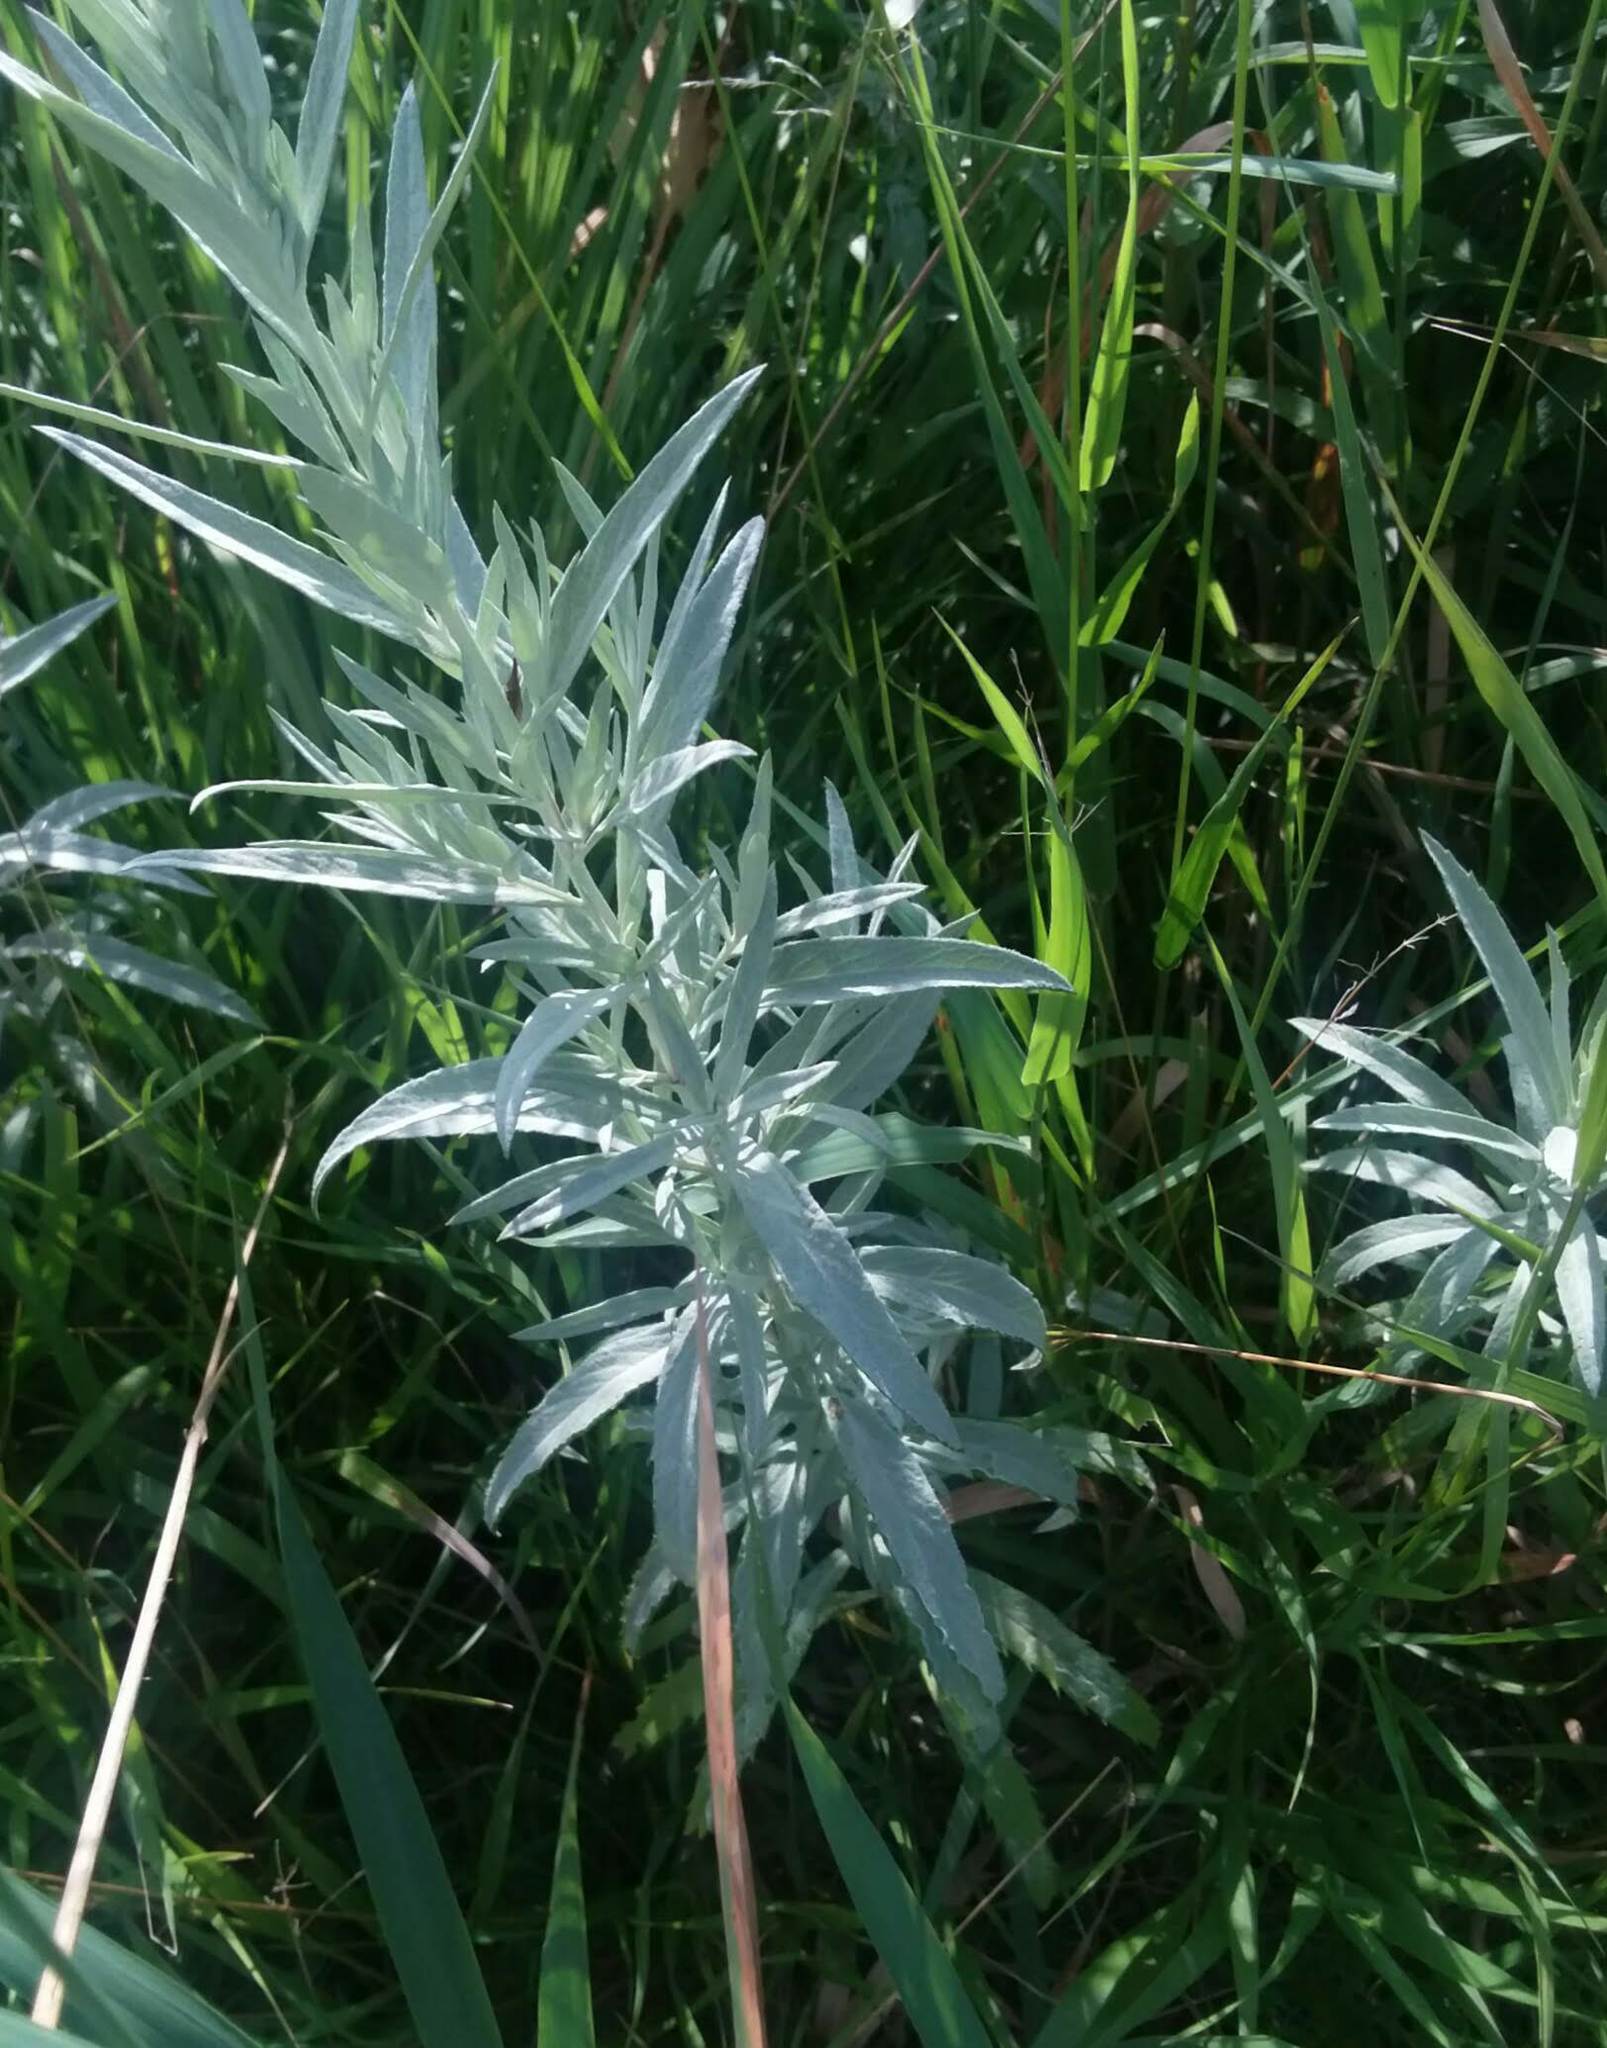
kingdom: Plantae
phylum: Tracheophyta
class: Magnoliopsida
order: Asterales
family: Asteraceae
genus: Artemisia
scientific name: Artemisia ludoviciana
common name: Western mugwort
